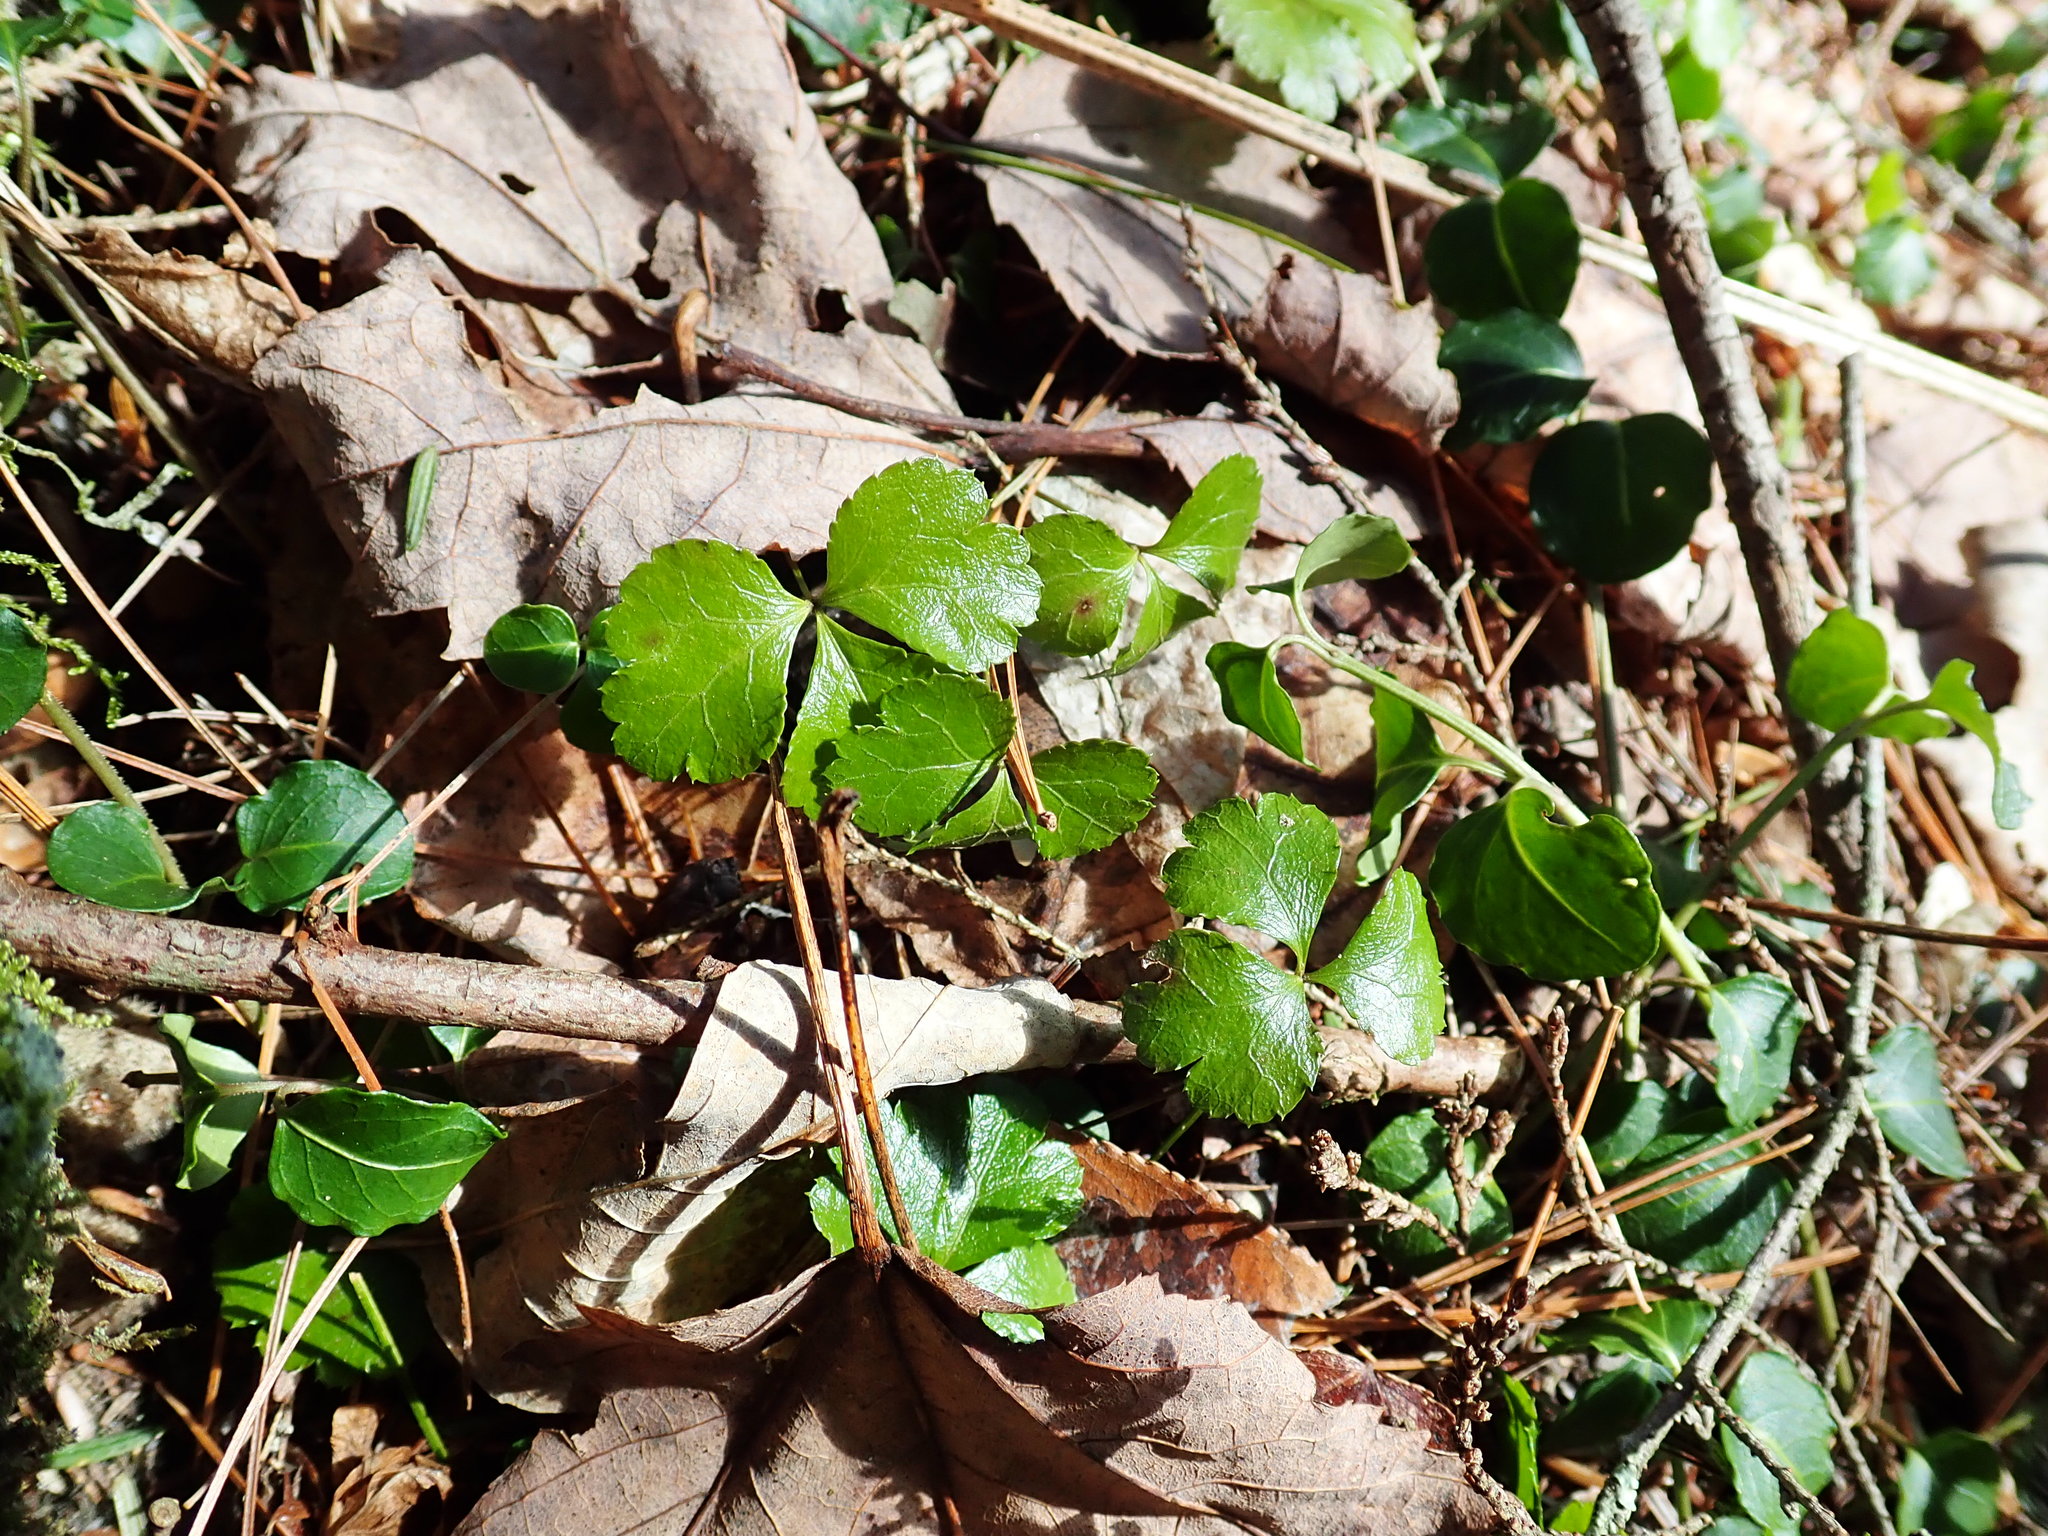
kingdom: Plantae
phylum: Tracheophyta
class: Magnoliopsida
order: Ranunculales
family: Ranunculaceae
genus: Coptis
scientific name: Coptis trifolia
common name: Canker-root
